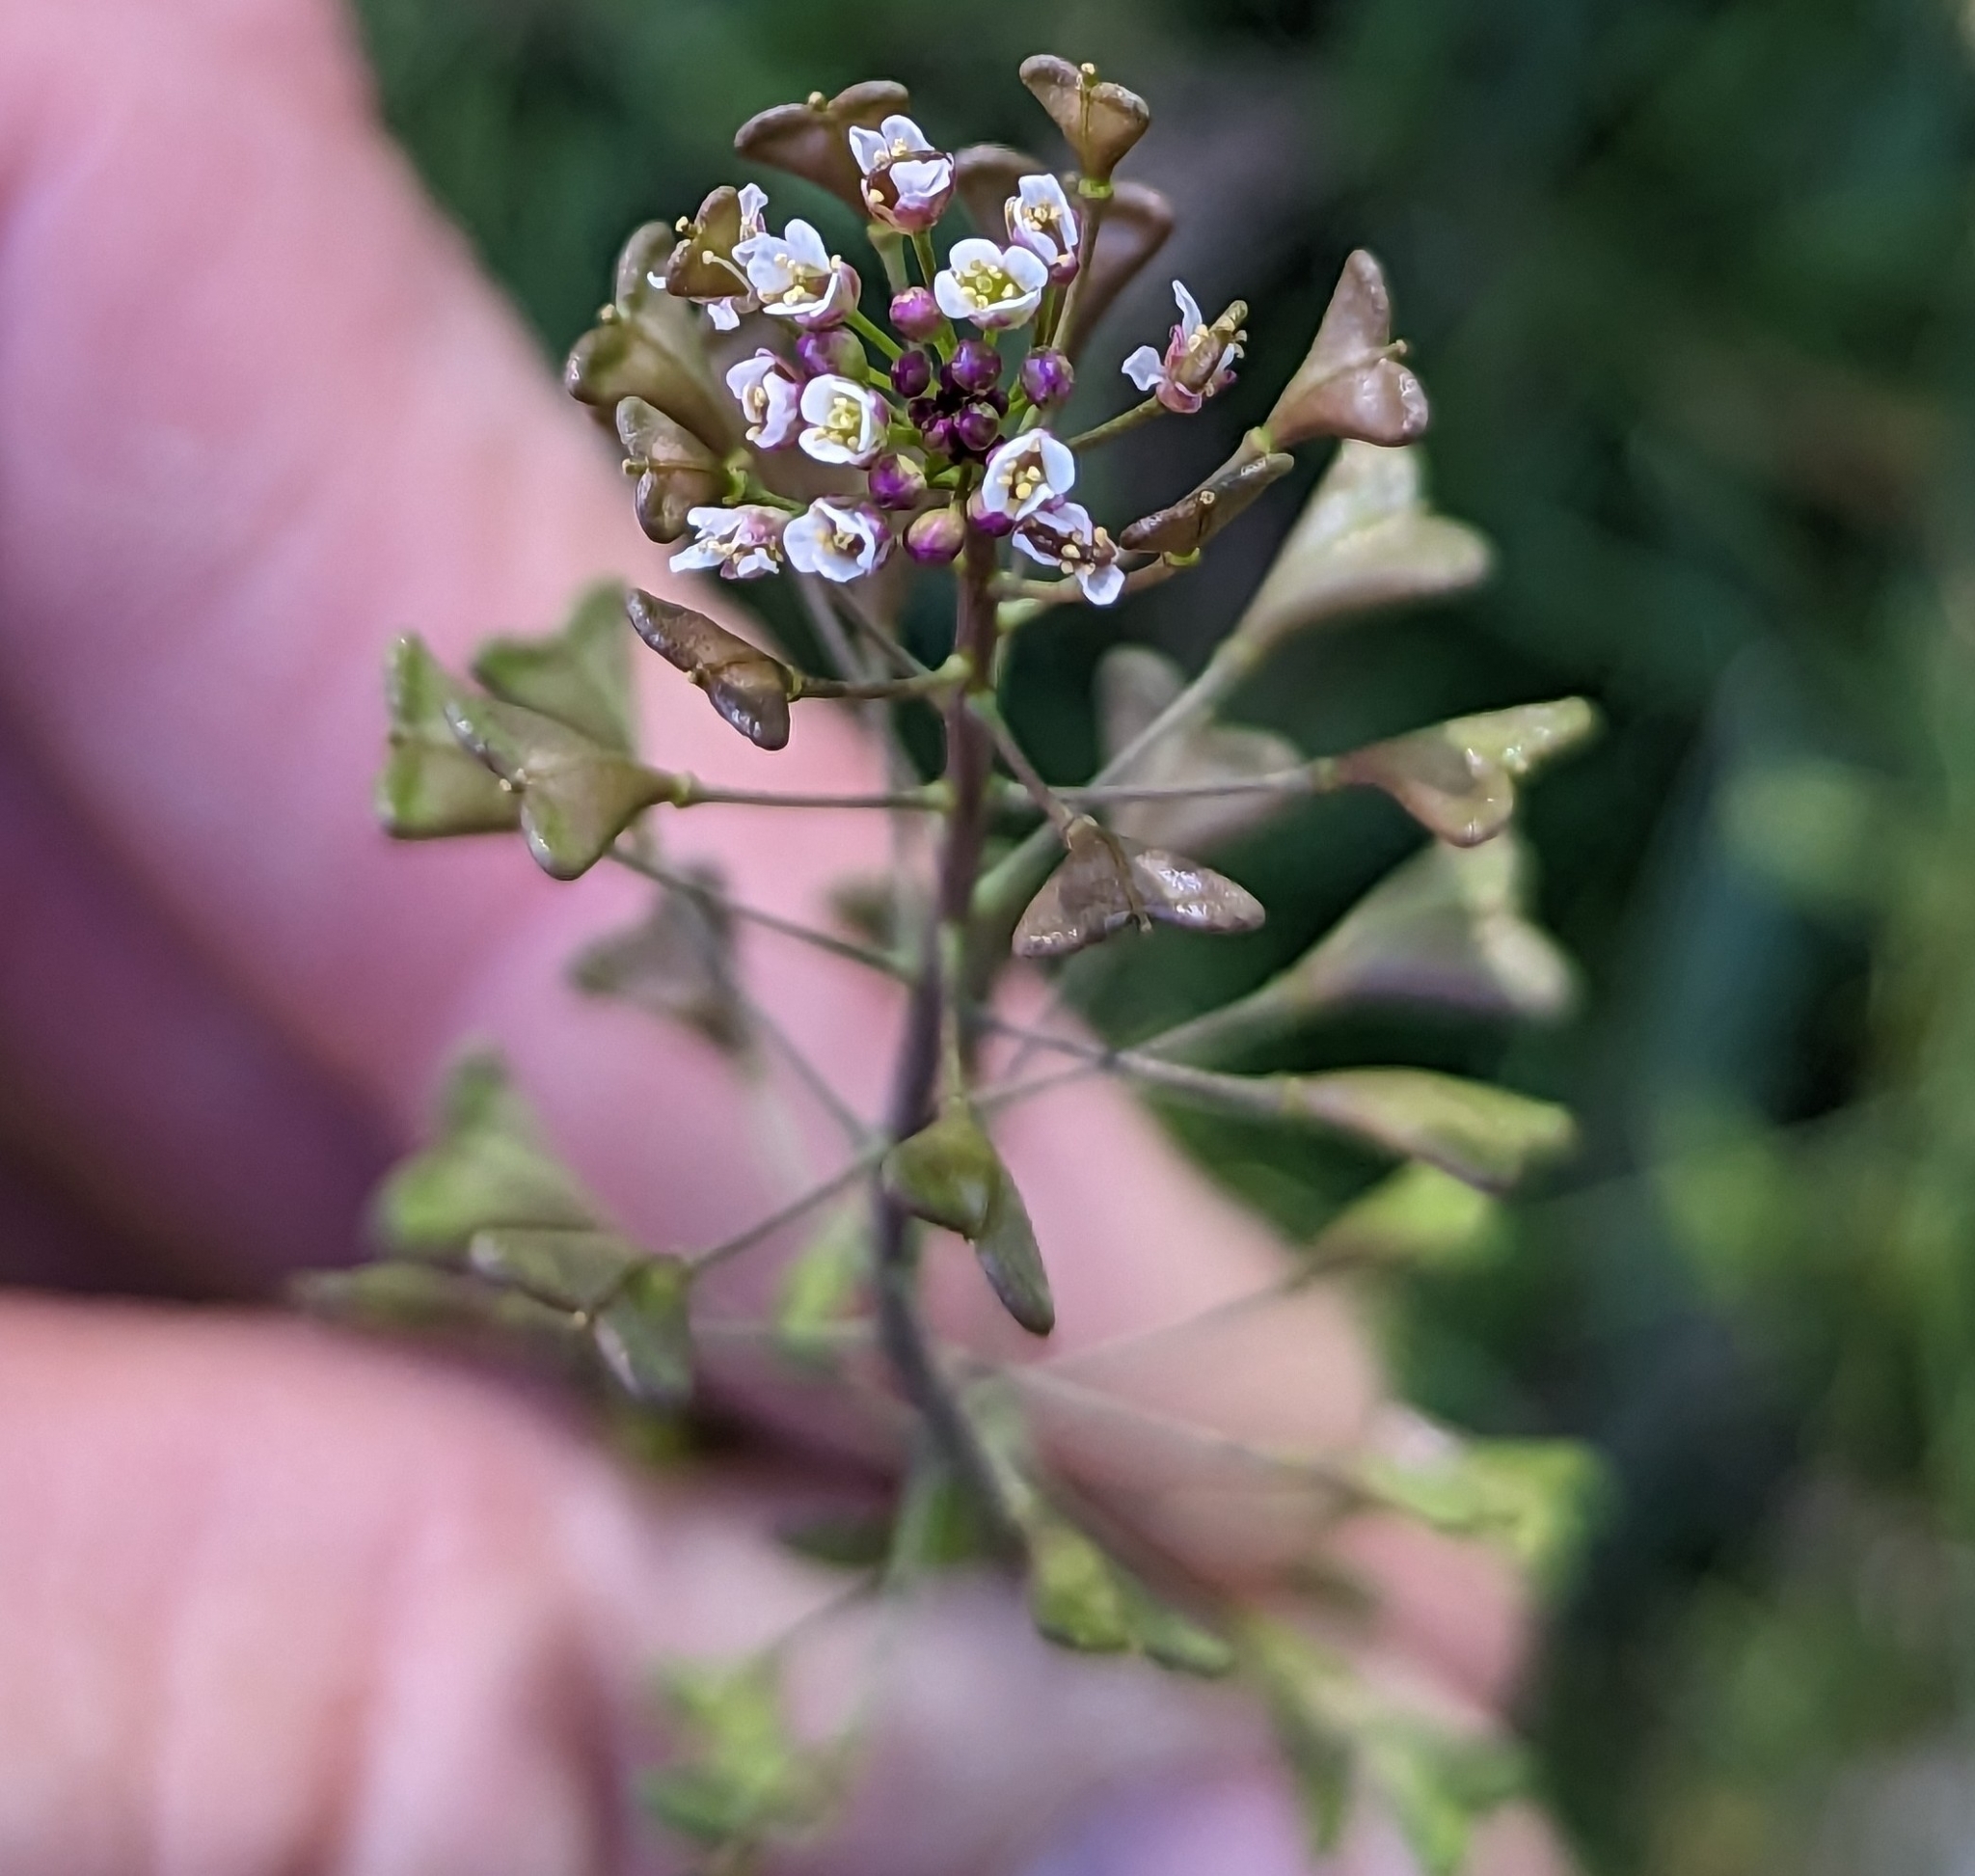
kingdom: Plantae
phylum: Tracheophyta
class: Magnoliopsida
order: Brassicales
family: Brassicaceae
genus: Capsella
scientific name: Capsella bursa-pastoris
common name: Shepherd's purse
